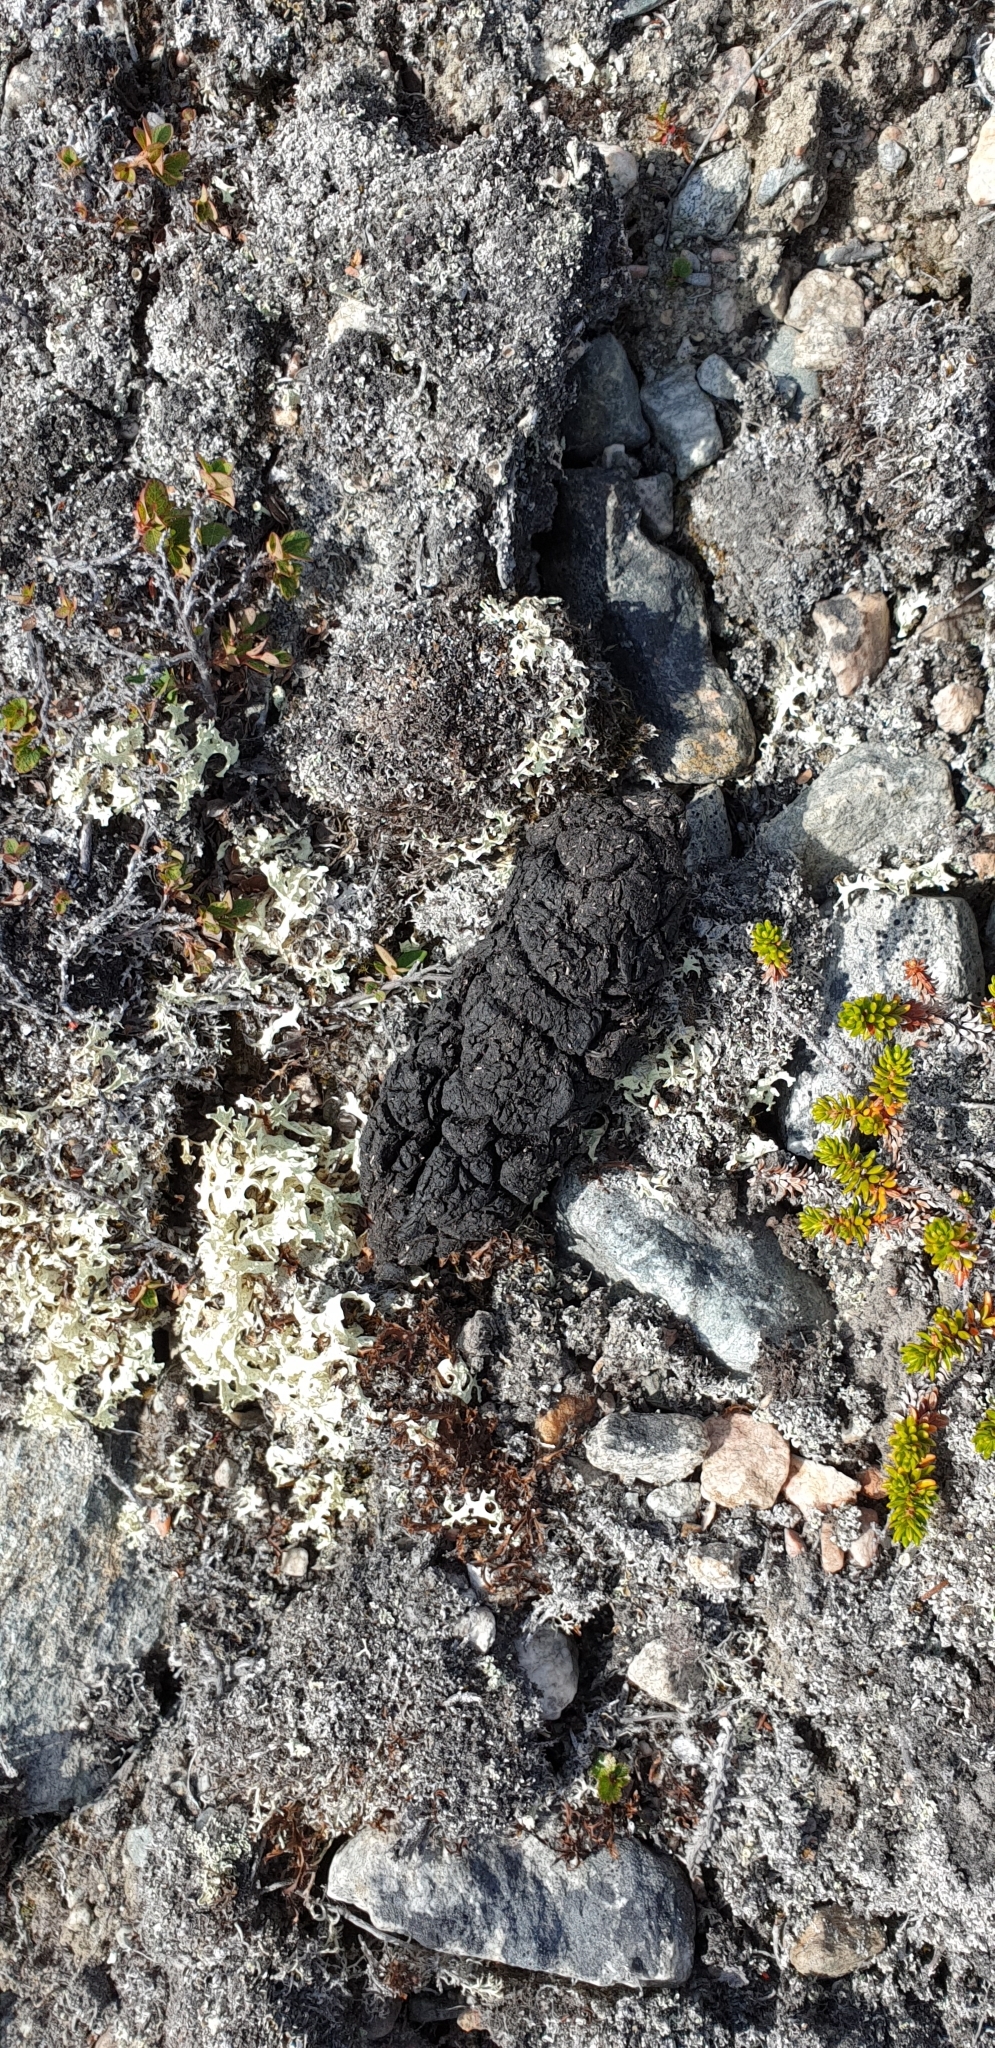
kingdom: Animalia
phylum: Chordata
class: Mammalia
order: Artiodactyla
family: Bovidae
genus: Ovibos
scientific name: Ovibos moschatus
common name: Muskox
